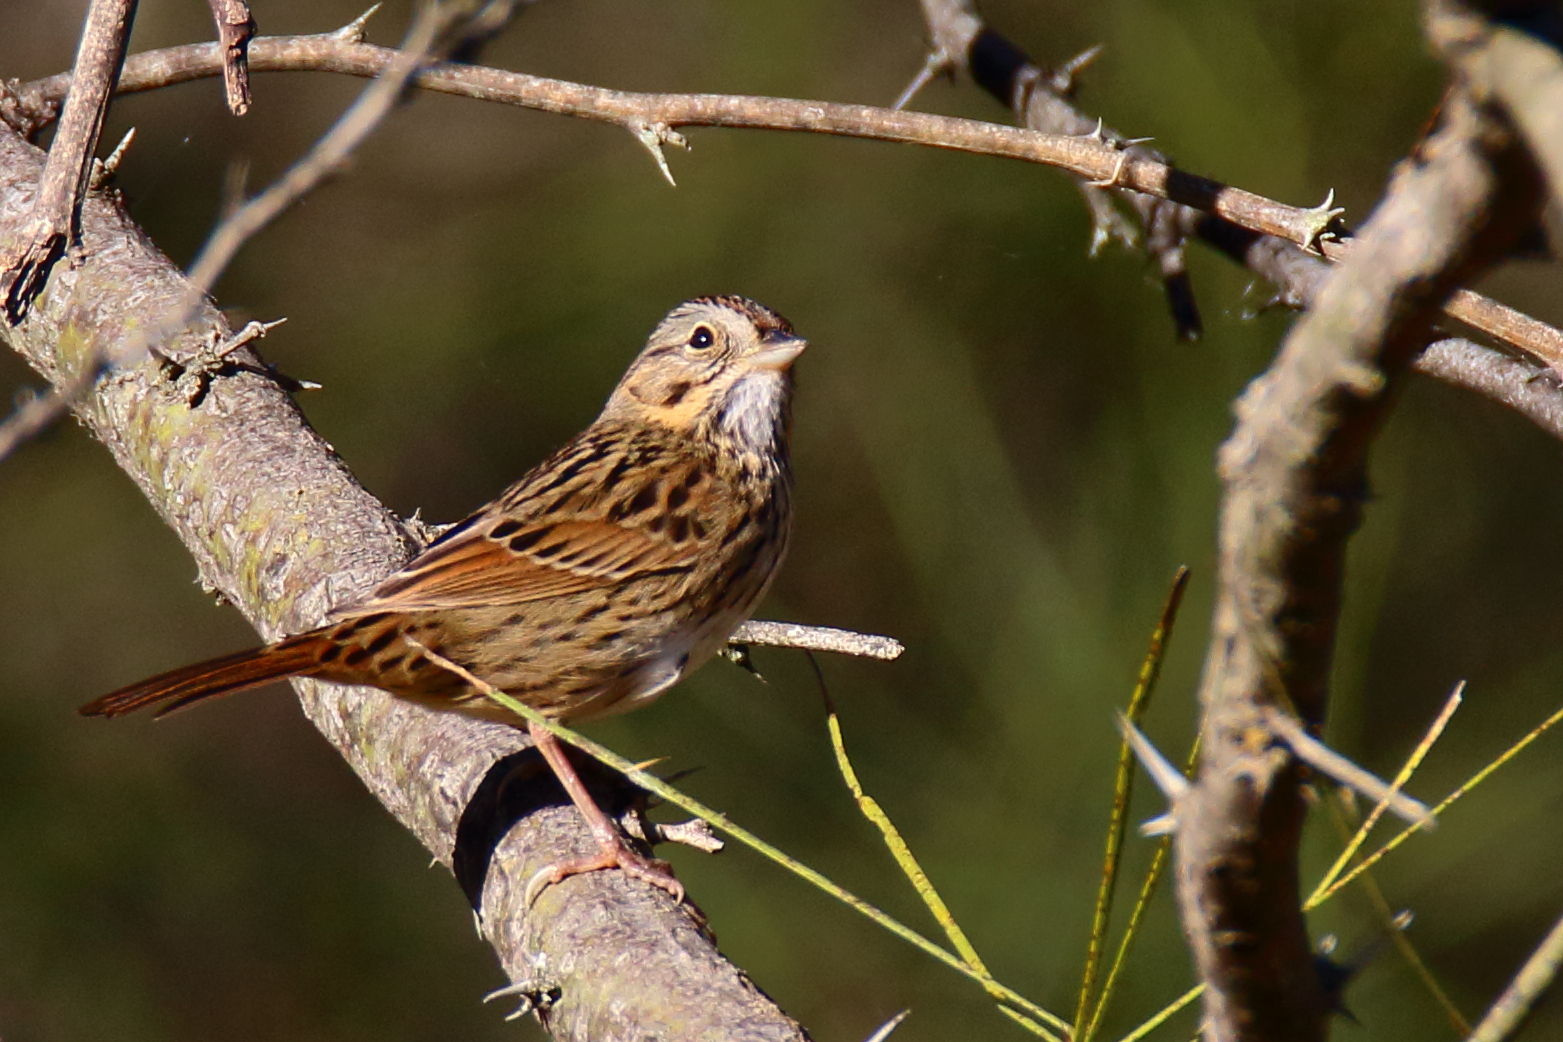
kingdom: Animalia
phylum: Chordata
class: Aves
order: Passeriformes
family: Passerellidae
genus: Melospiza
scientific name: Melospiza lincolnii
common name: Lincoln's sparrow
